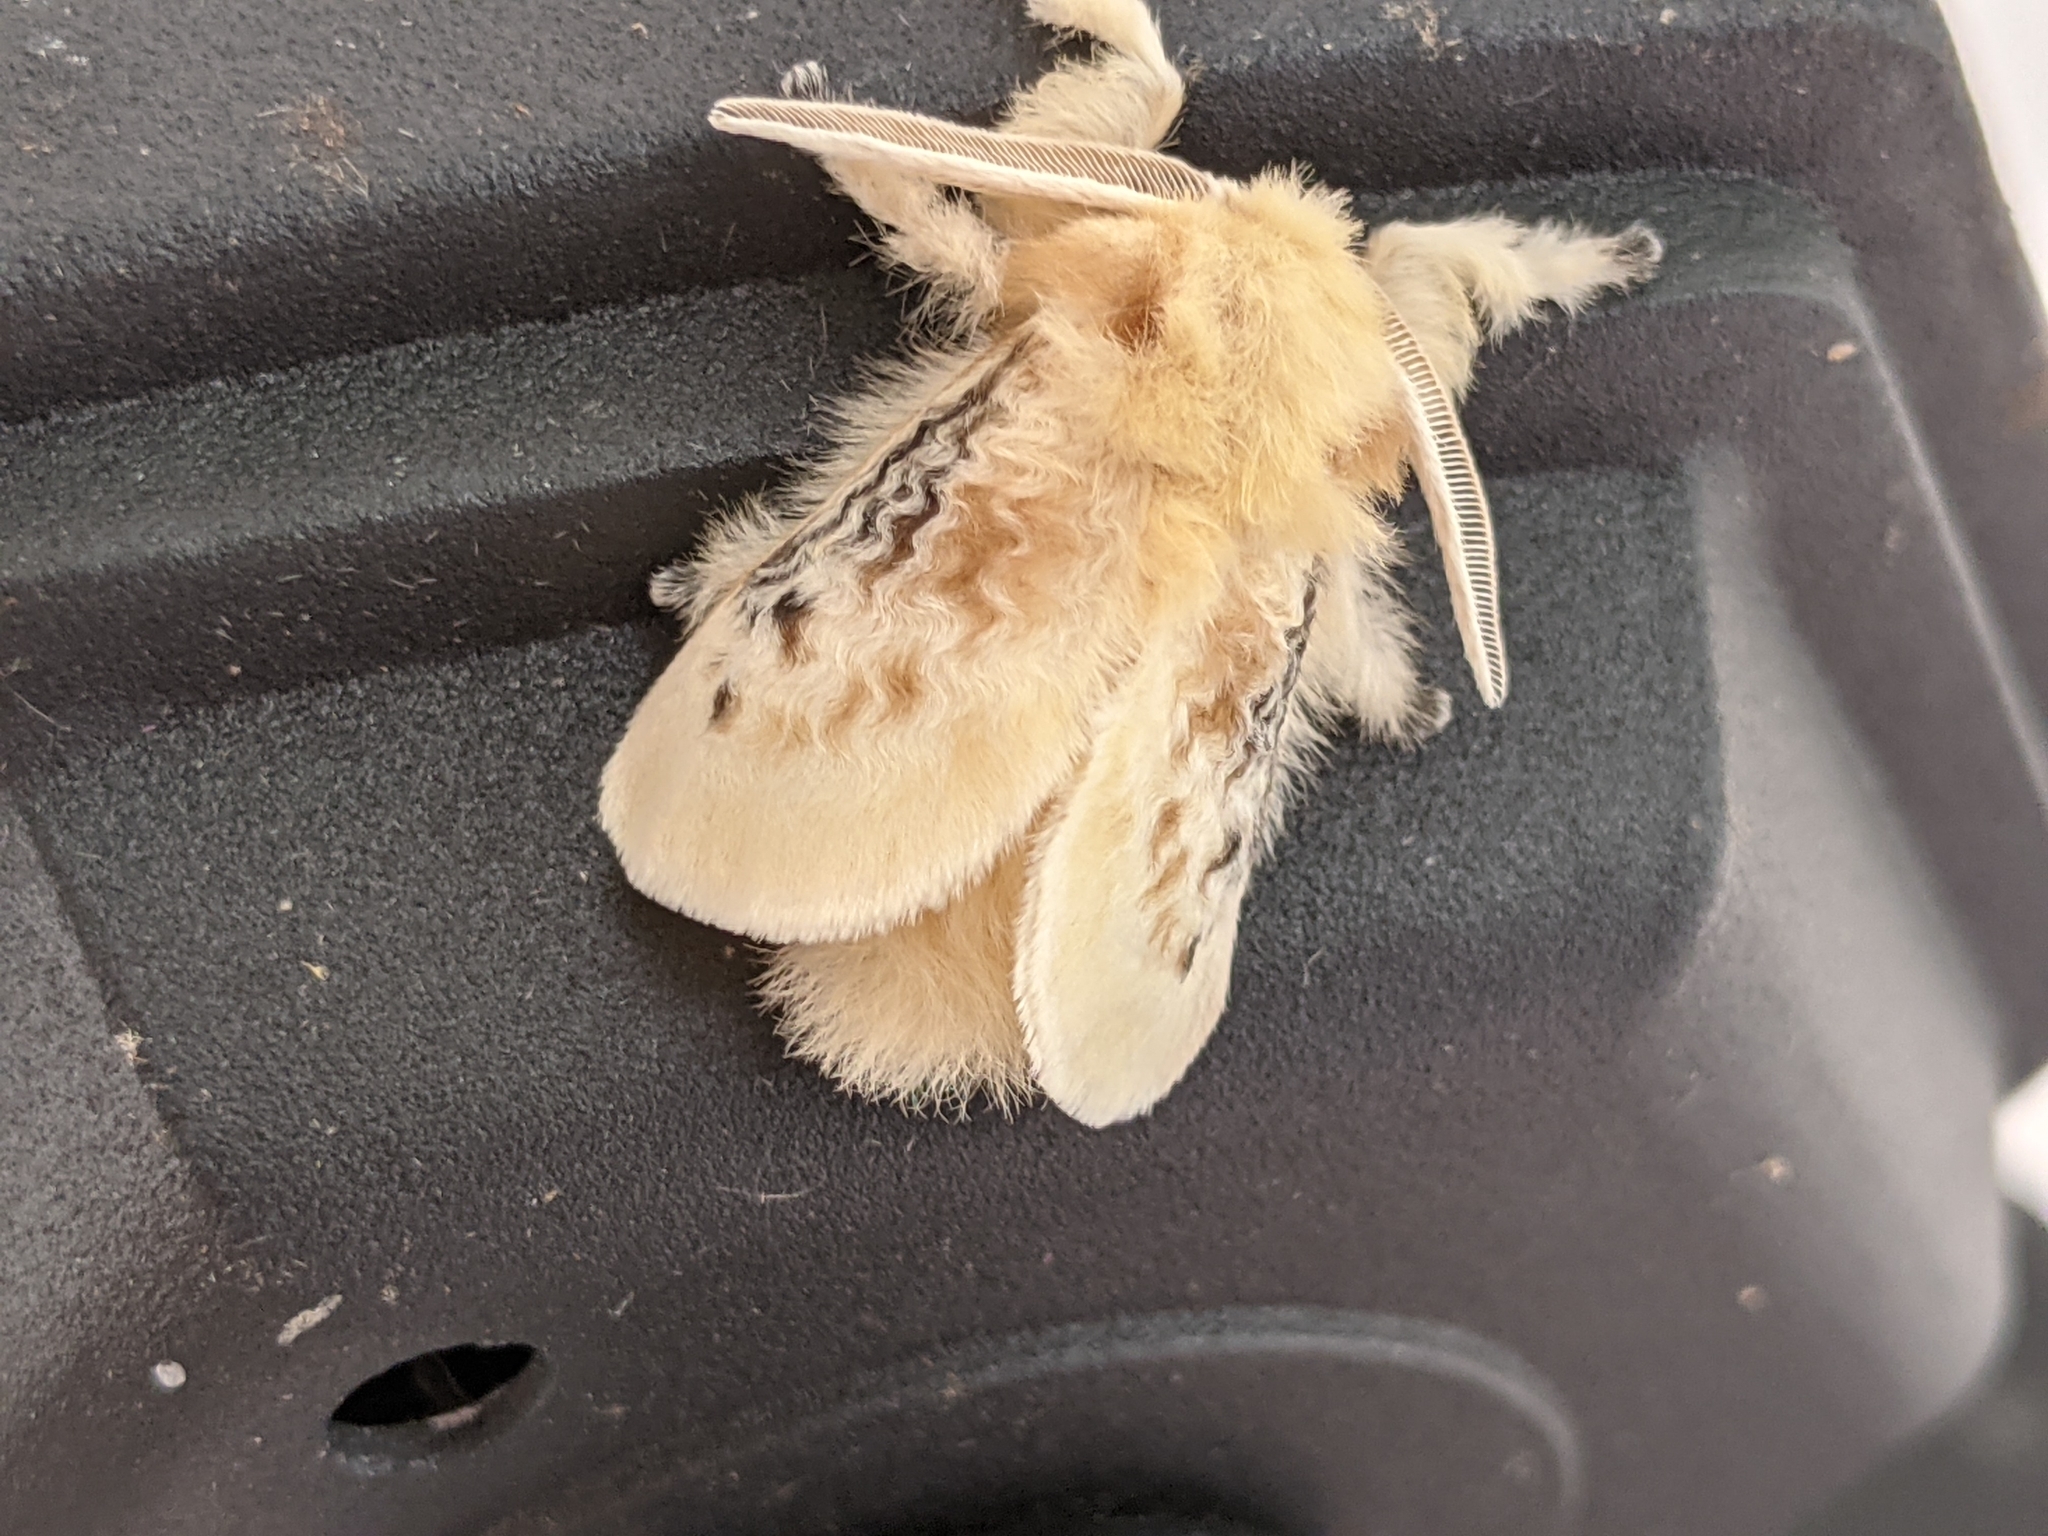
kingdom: Animalia
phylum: Arthropoda
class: Insecta
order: Lepidoptera
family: Megalopygidae
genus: Megalopyge
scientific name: Megalopyge crispata
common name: Black-waved flannel moth
